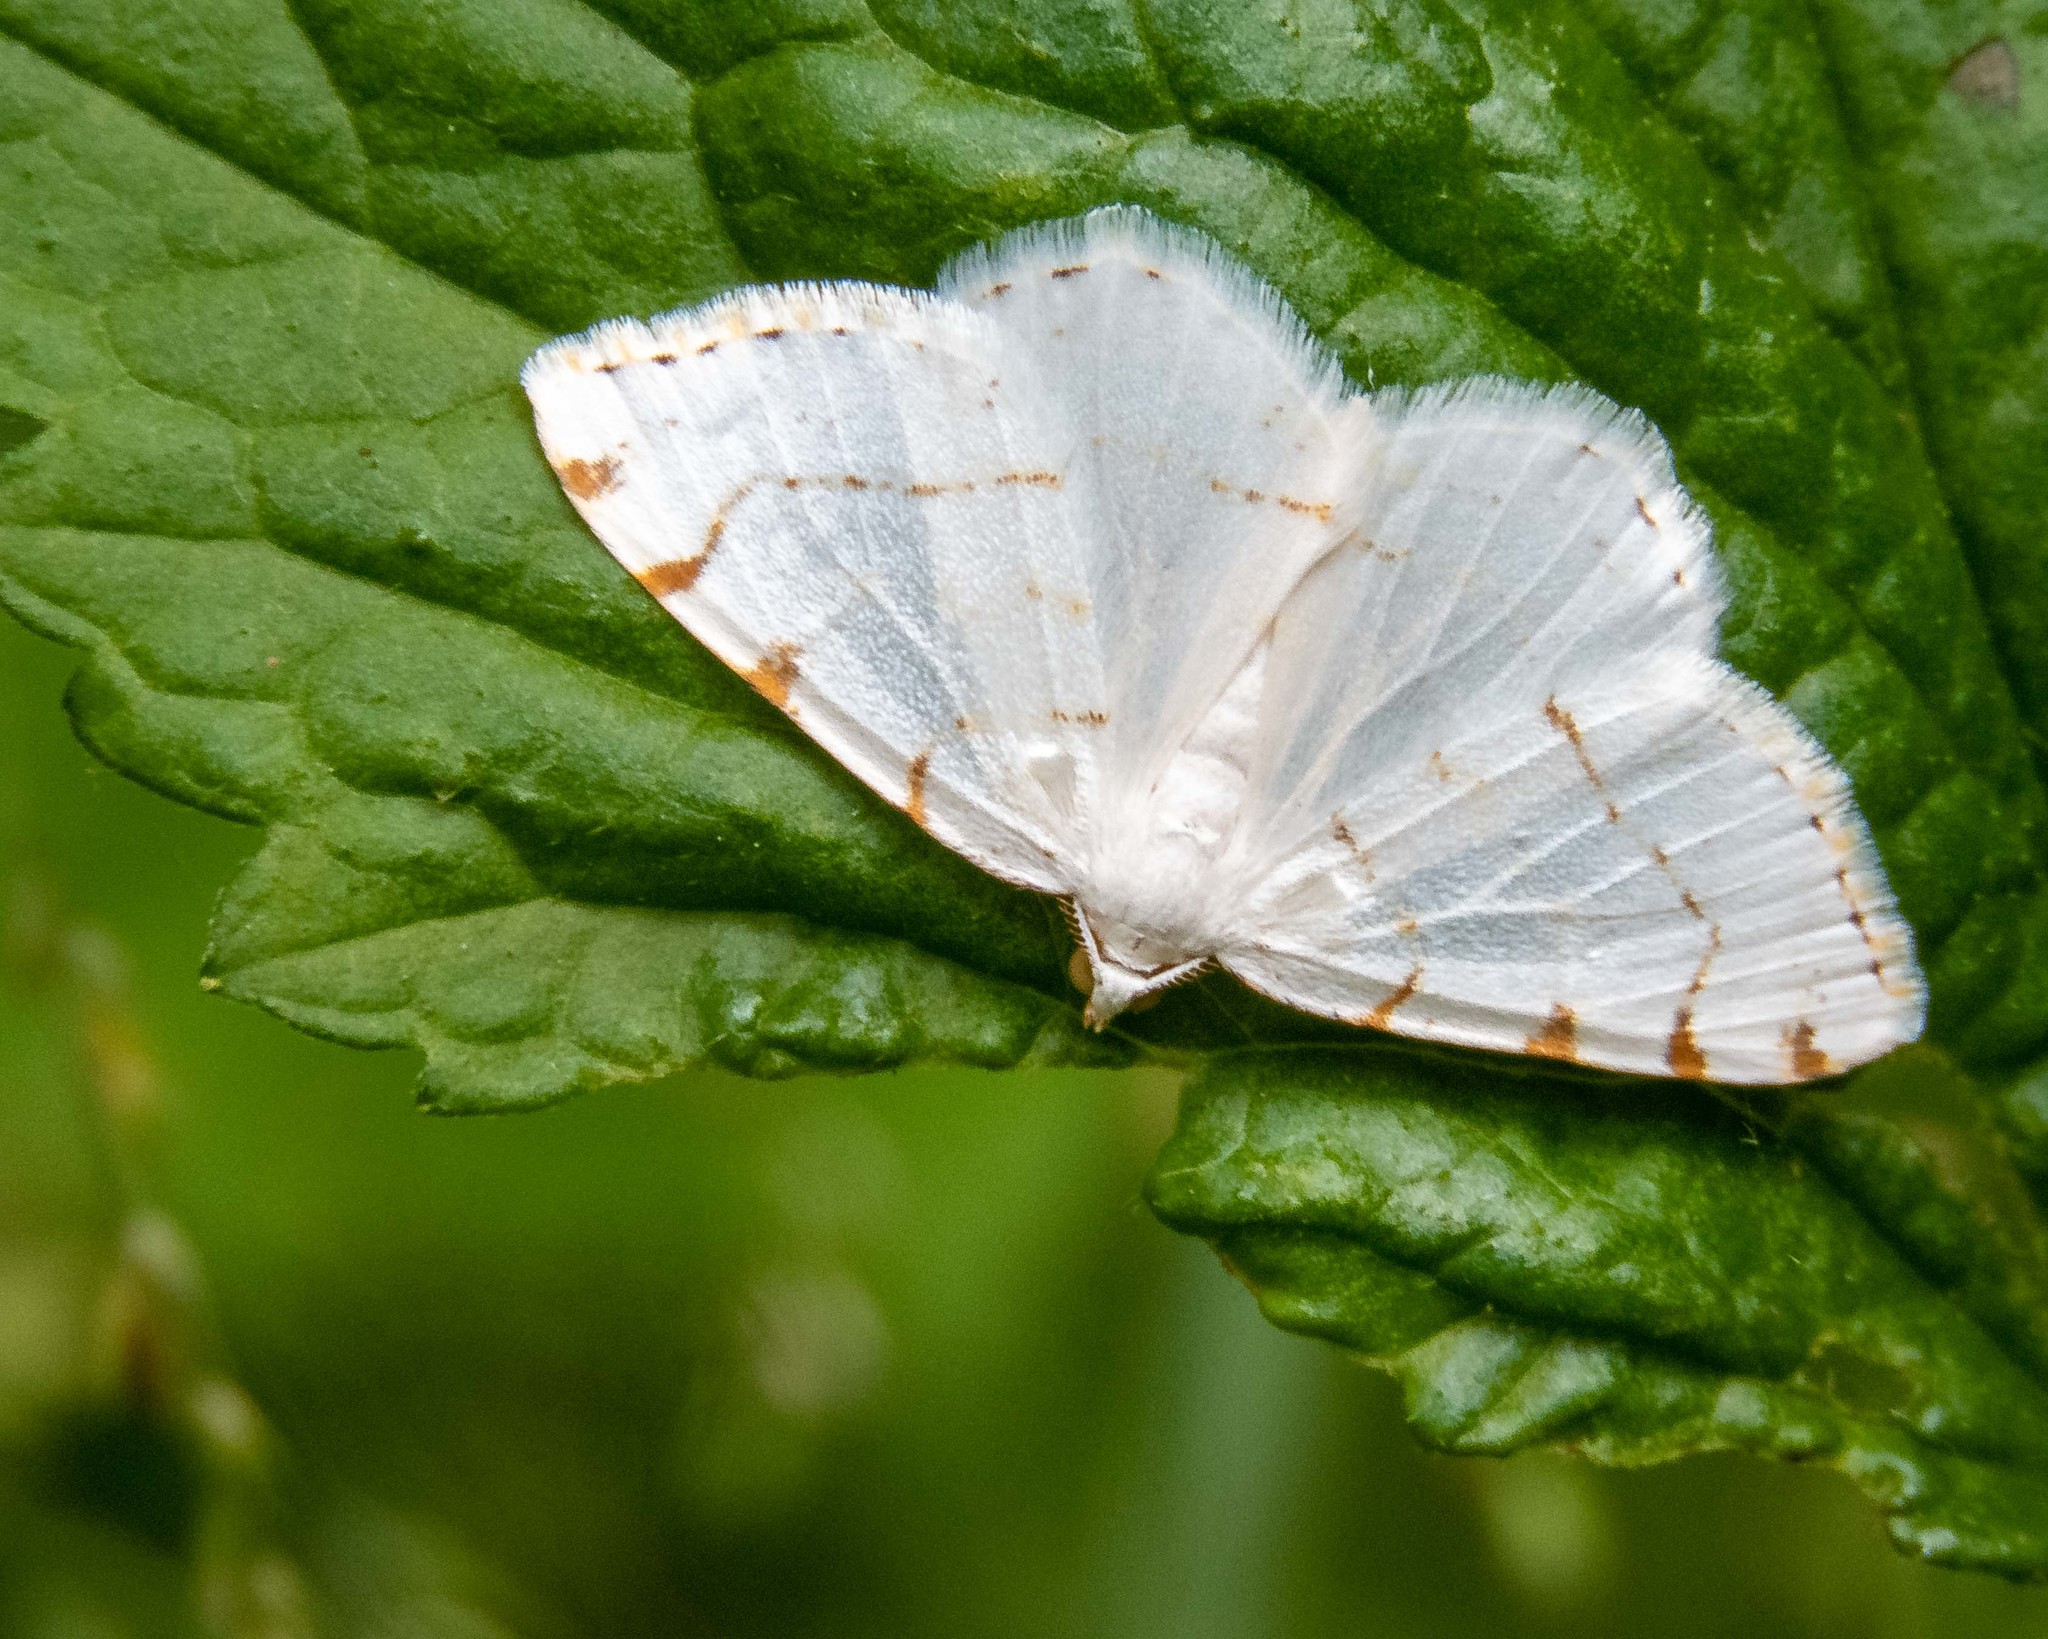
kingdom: Animalia
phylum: Arthropoda
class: Insecta
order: Lepidoptera
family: Geometridae
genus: Macaria
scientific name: Macaria pustularia
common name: Lesser maple spanworm moth
